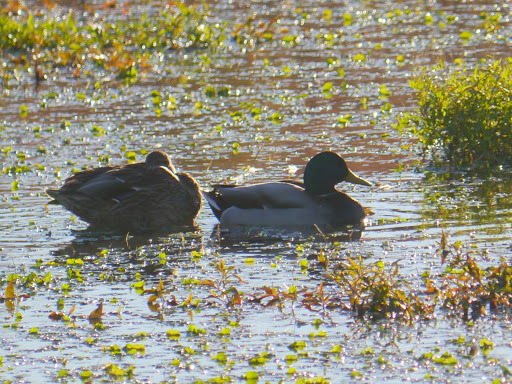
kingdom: Animalia
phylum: Chordata
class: Aves
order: Anseriformes
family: Anatidae
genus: Anas
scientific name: Anas platyrhynchos
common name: Mallard
